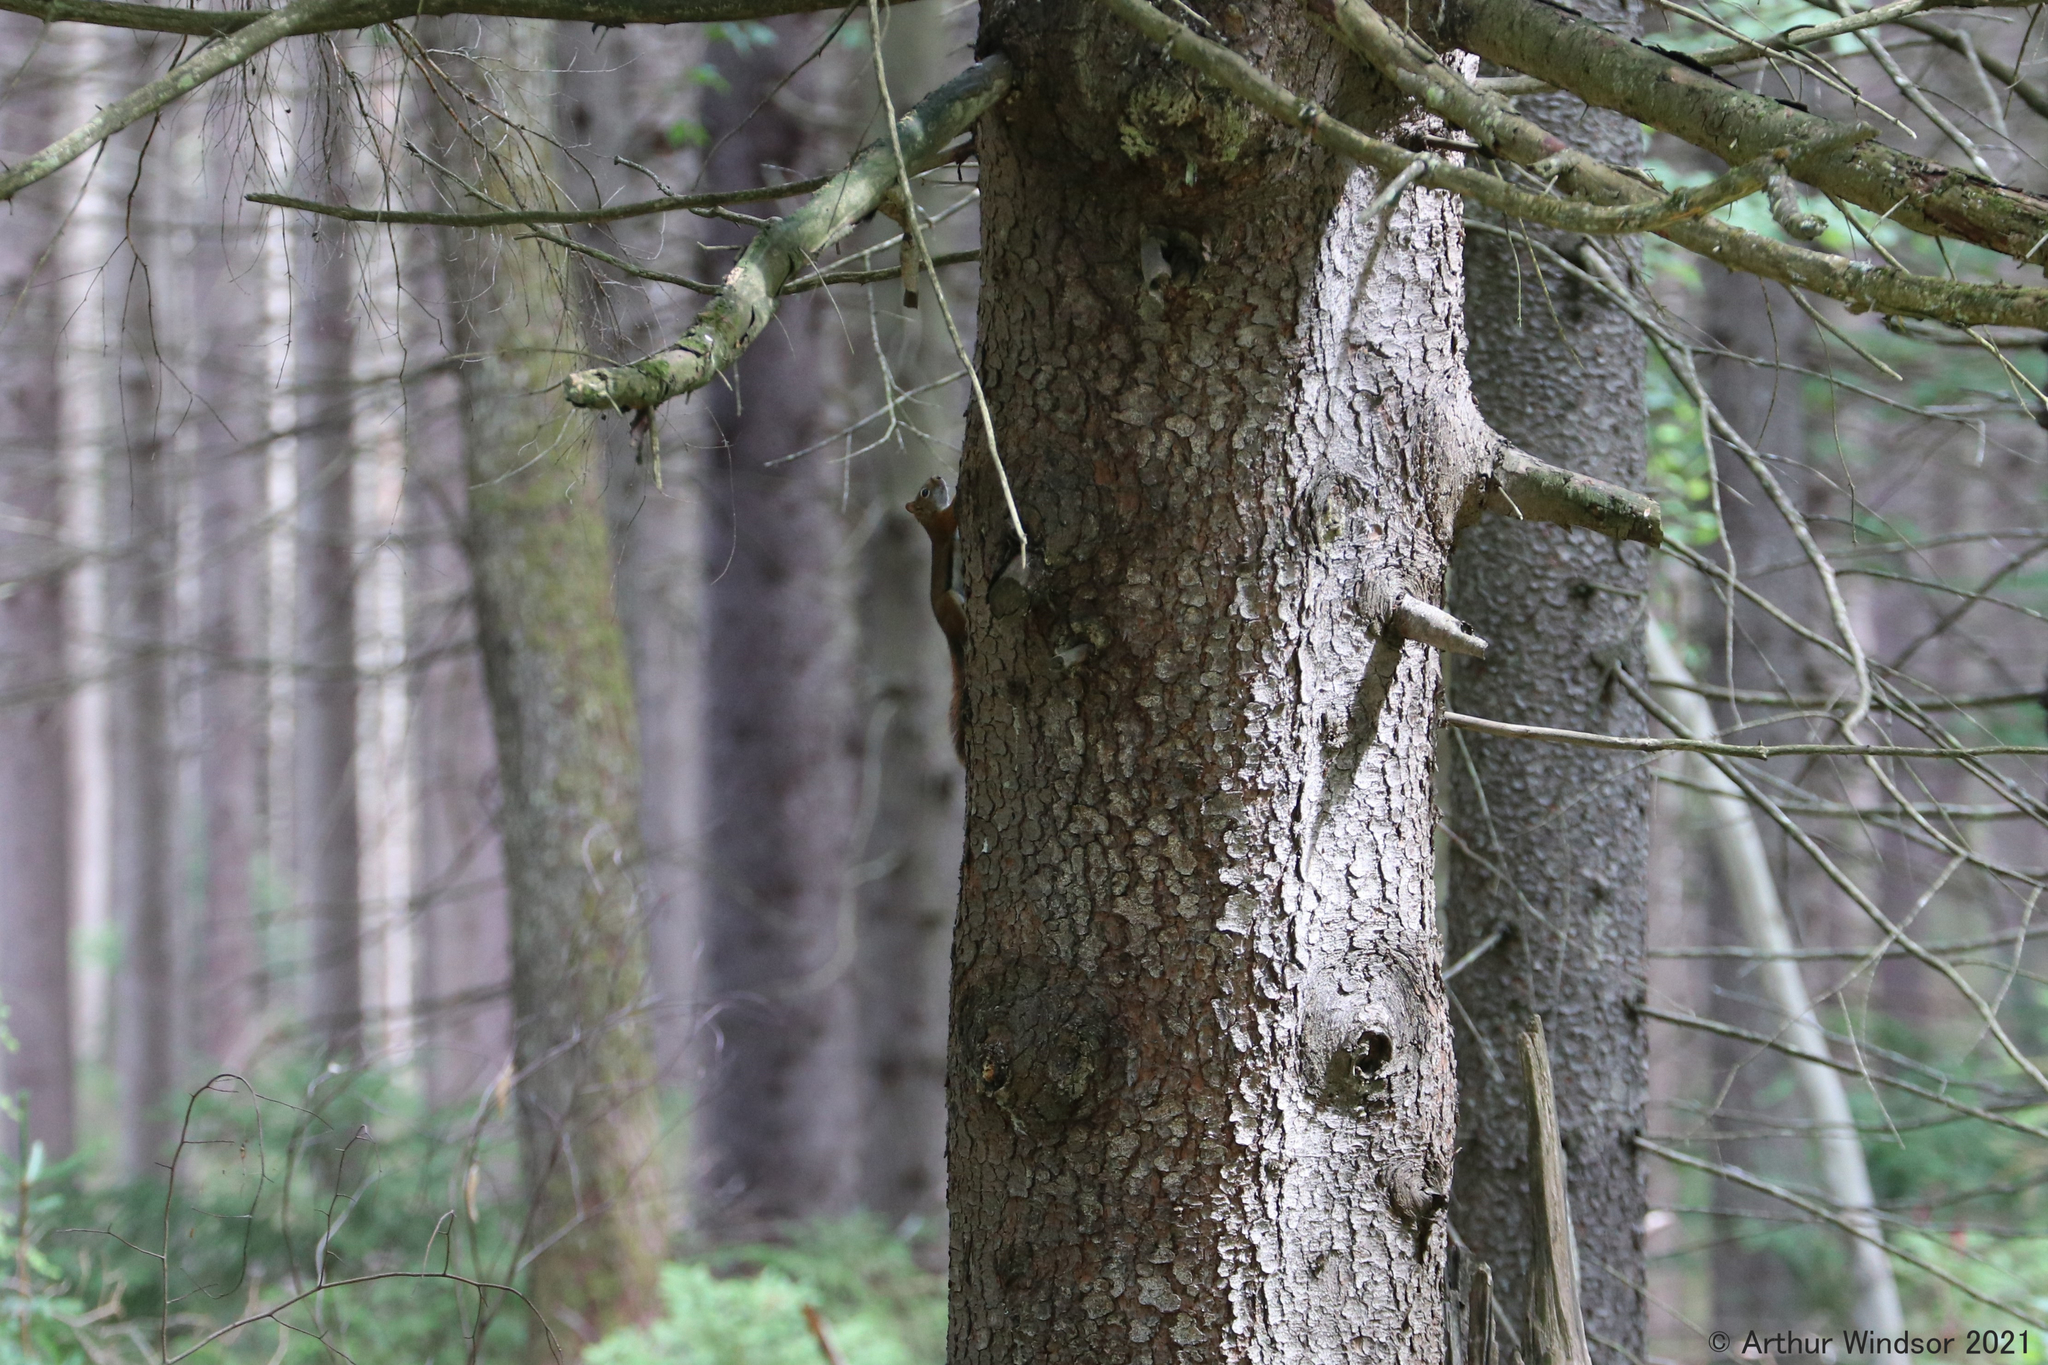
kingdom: Animalia
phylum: Chordata
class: Mammalia
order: Rodentia
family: Sciuridae
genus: Tamiasciurus
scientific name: Tamiasciurus hudsonicus
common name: Red squirrel
